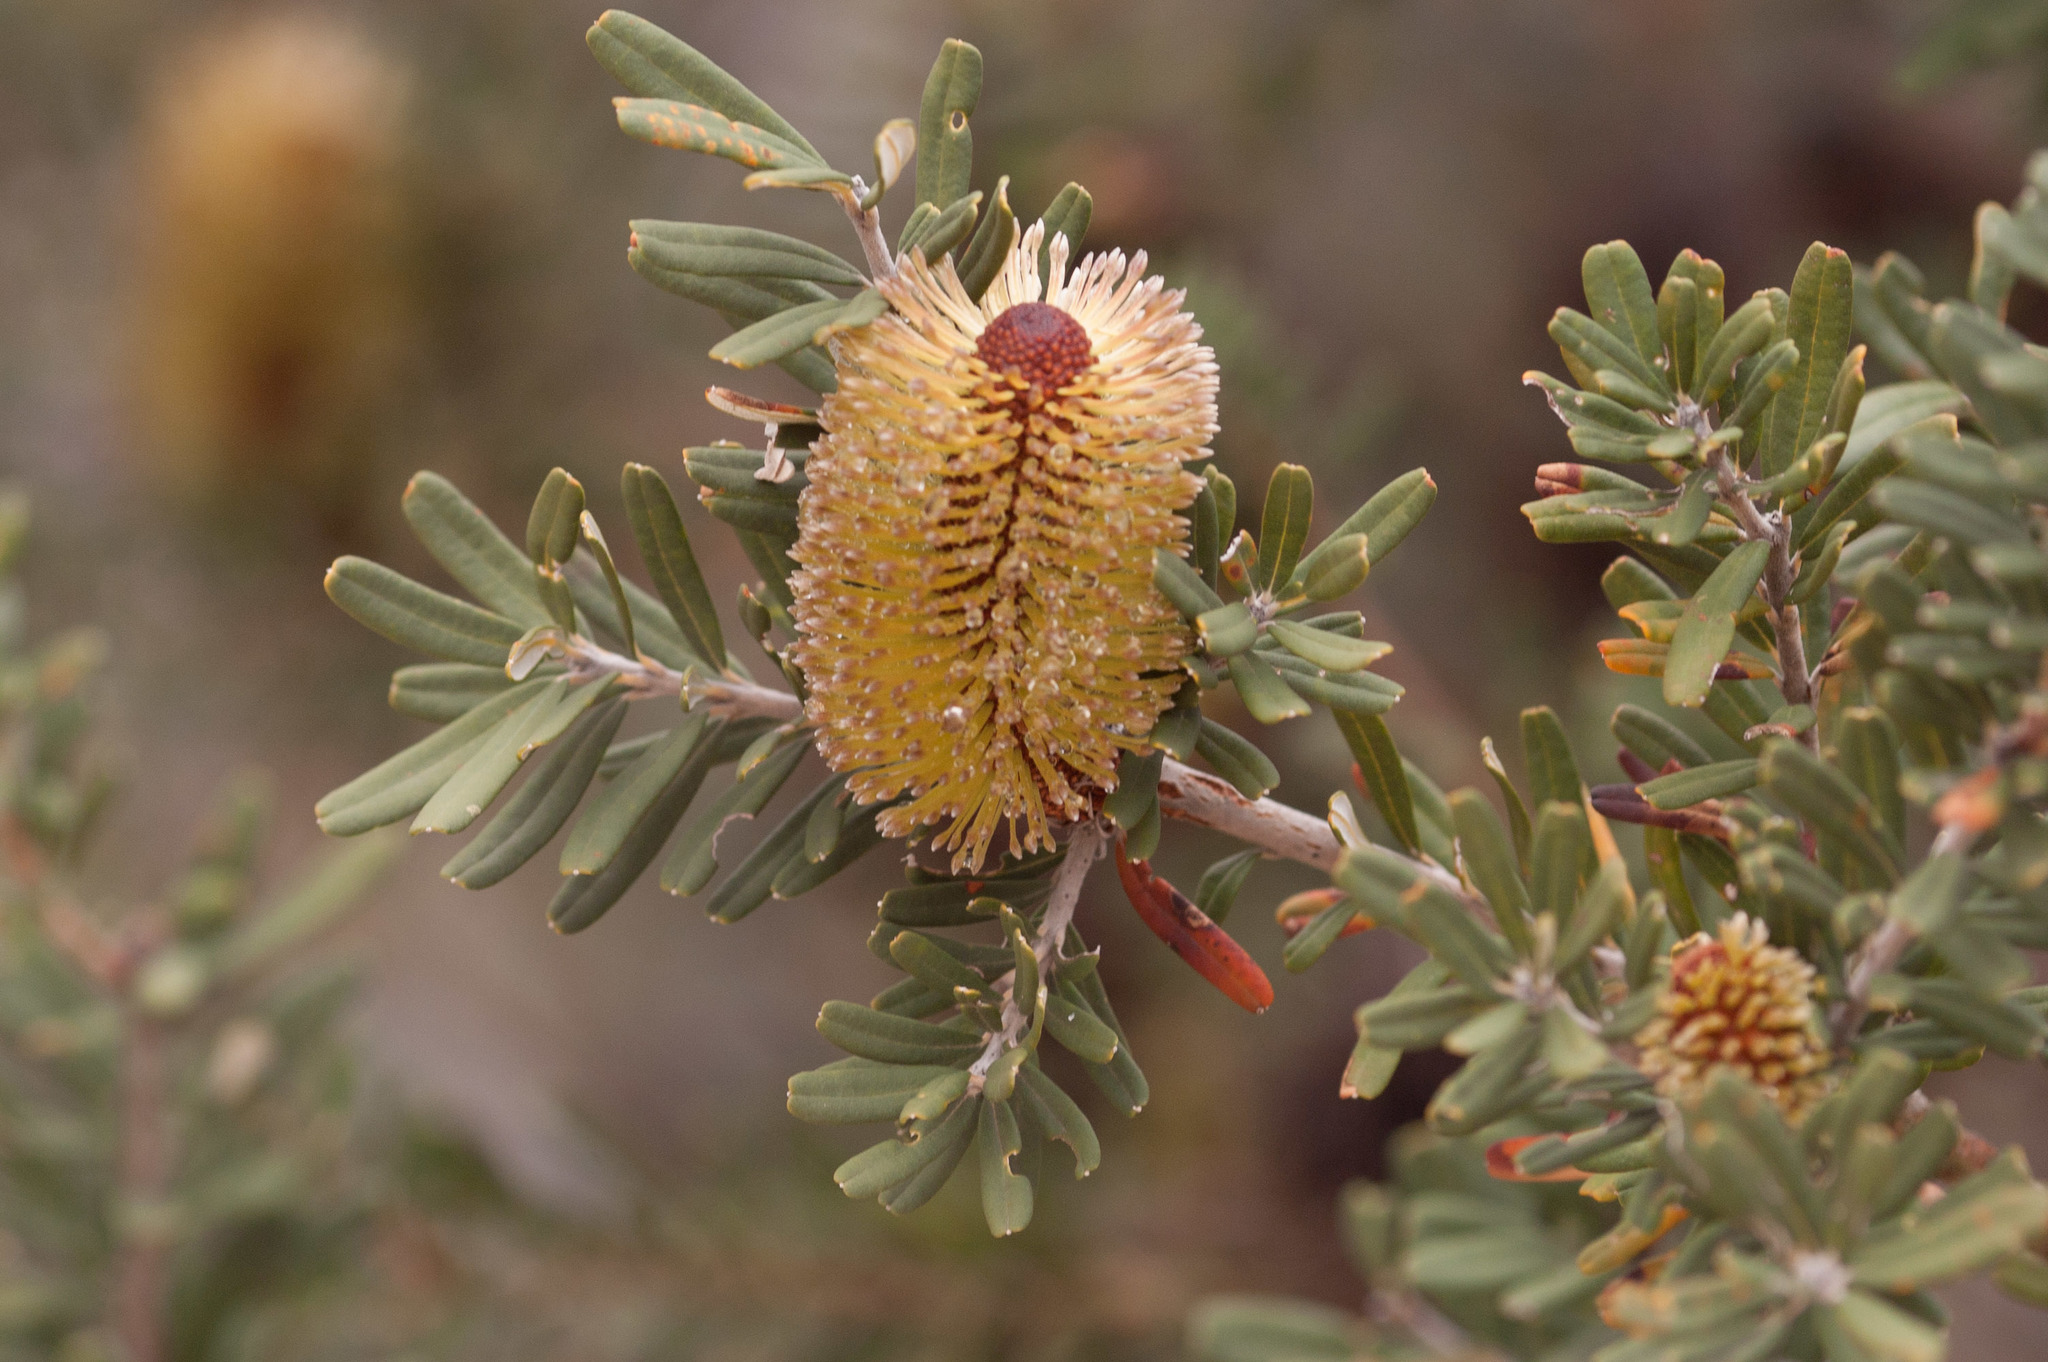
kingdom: Plantae
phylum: Tracheophyta
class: Magnoliopsida
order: Proteales
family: Proteaceae
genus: Banksia
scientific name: Banksia marginata
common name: Silver banksia
